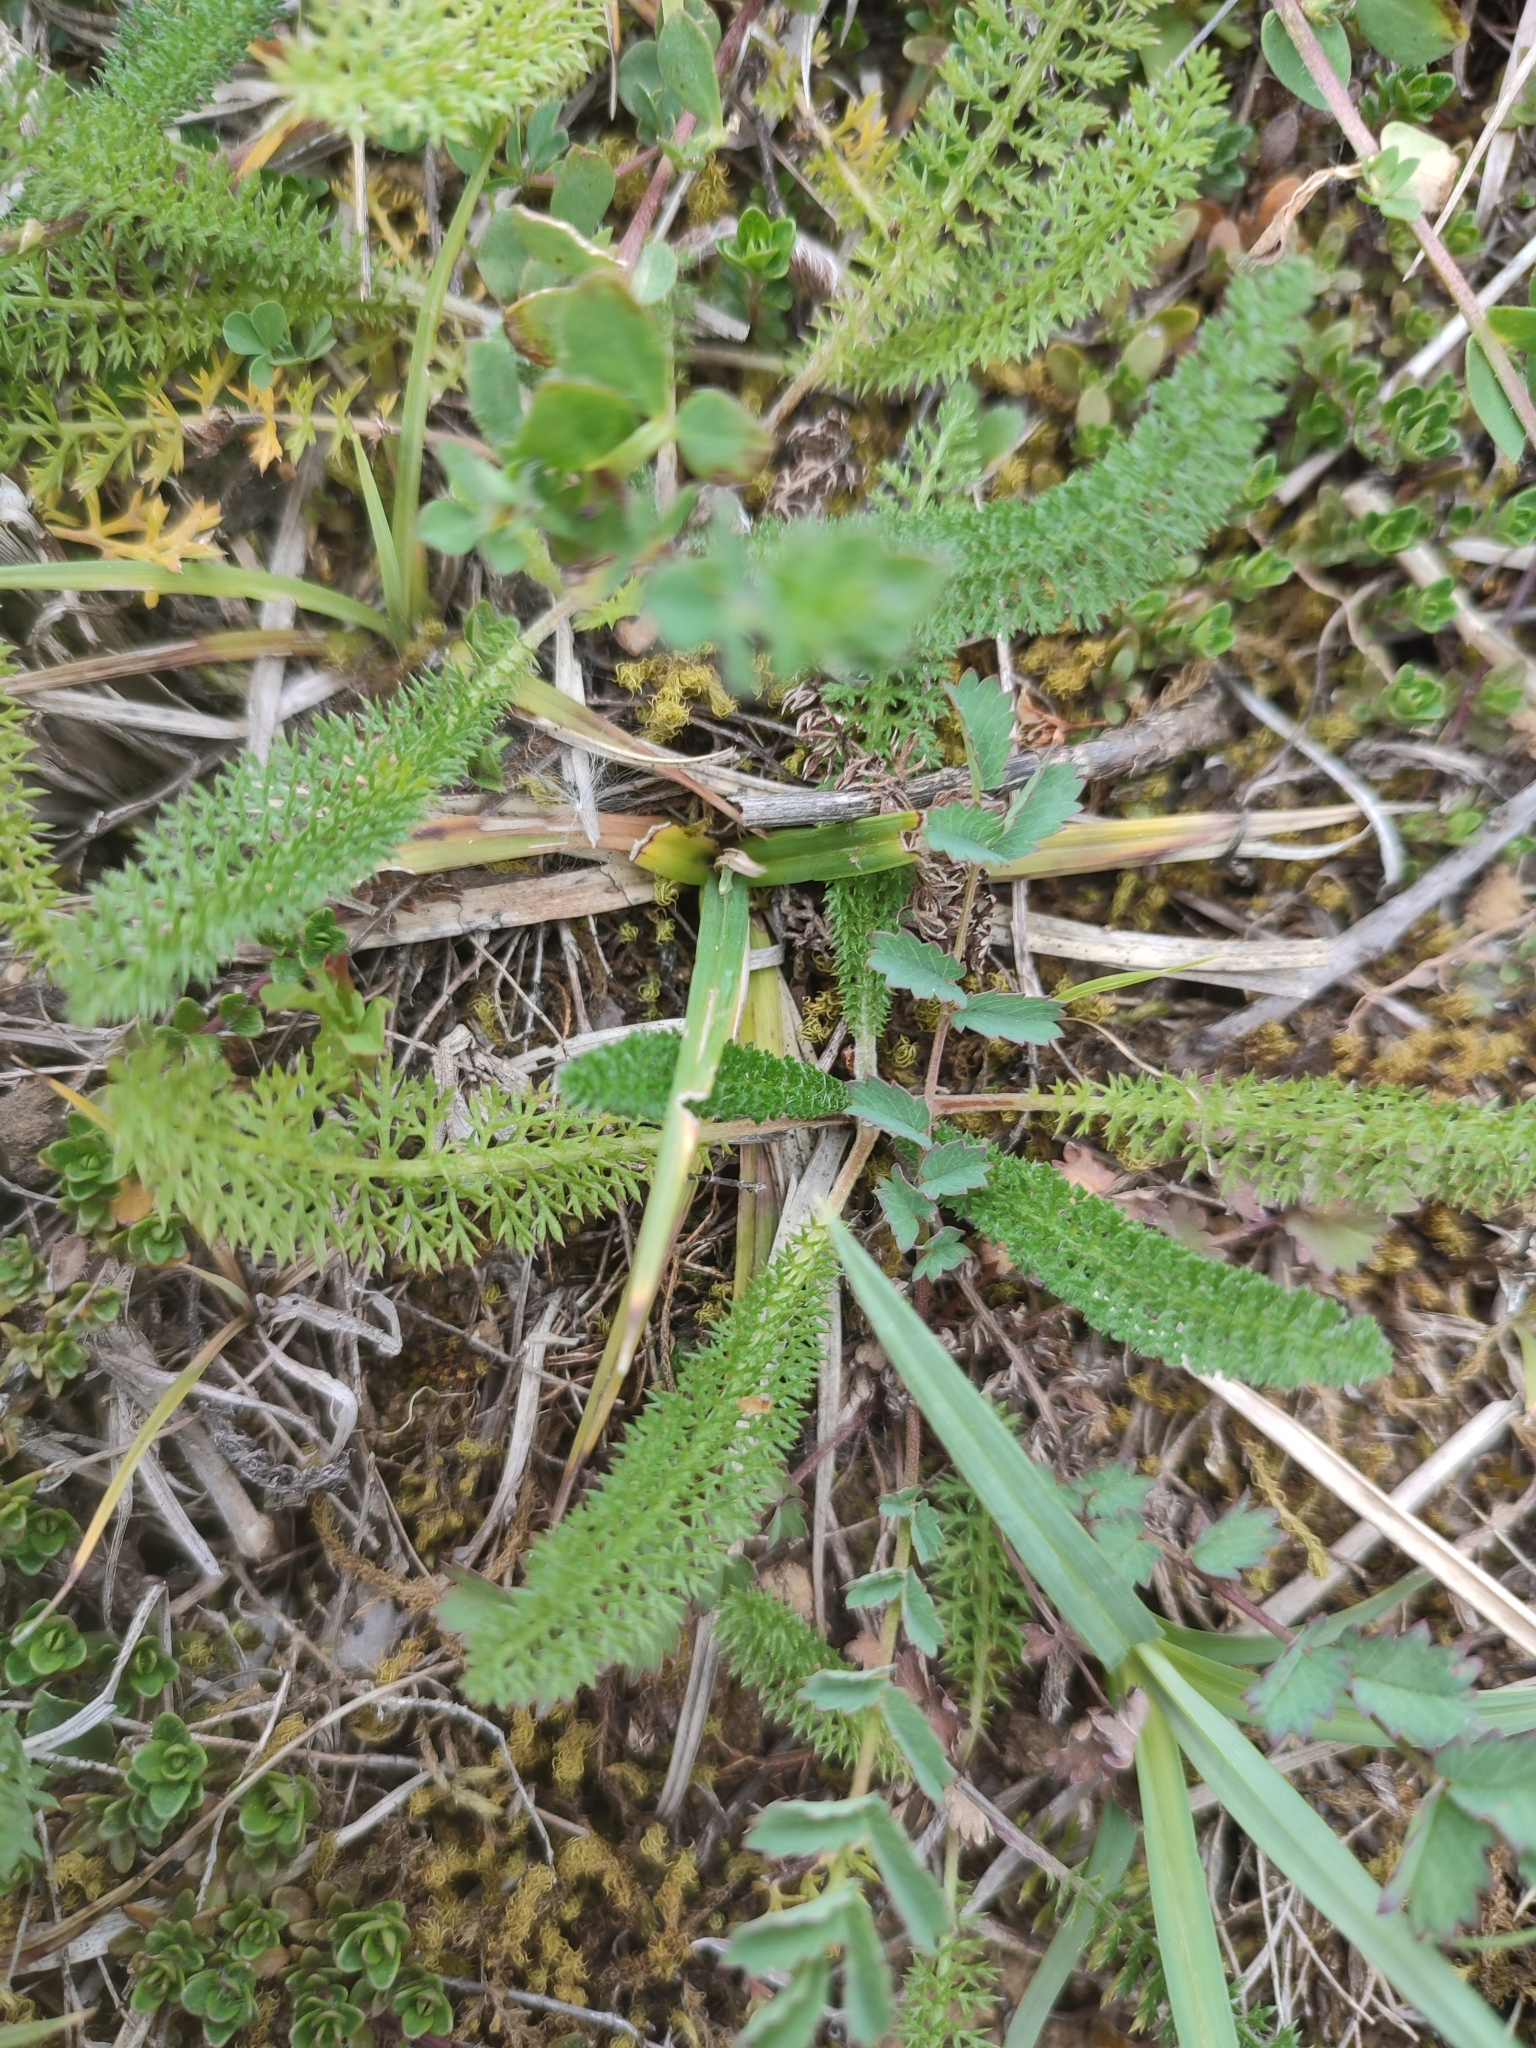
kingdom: Plantae
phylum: Tracheophyta
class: Magnoliopsida
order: Asterales
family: Asteraceae
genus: Achillea
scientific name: Achillea millefolium
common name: Yarrow
